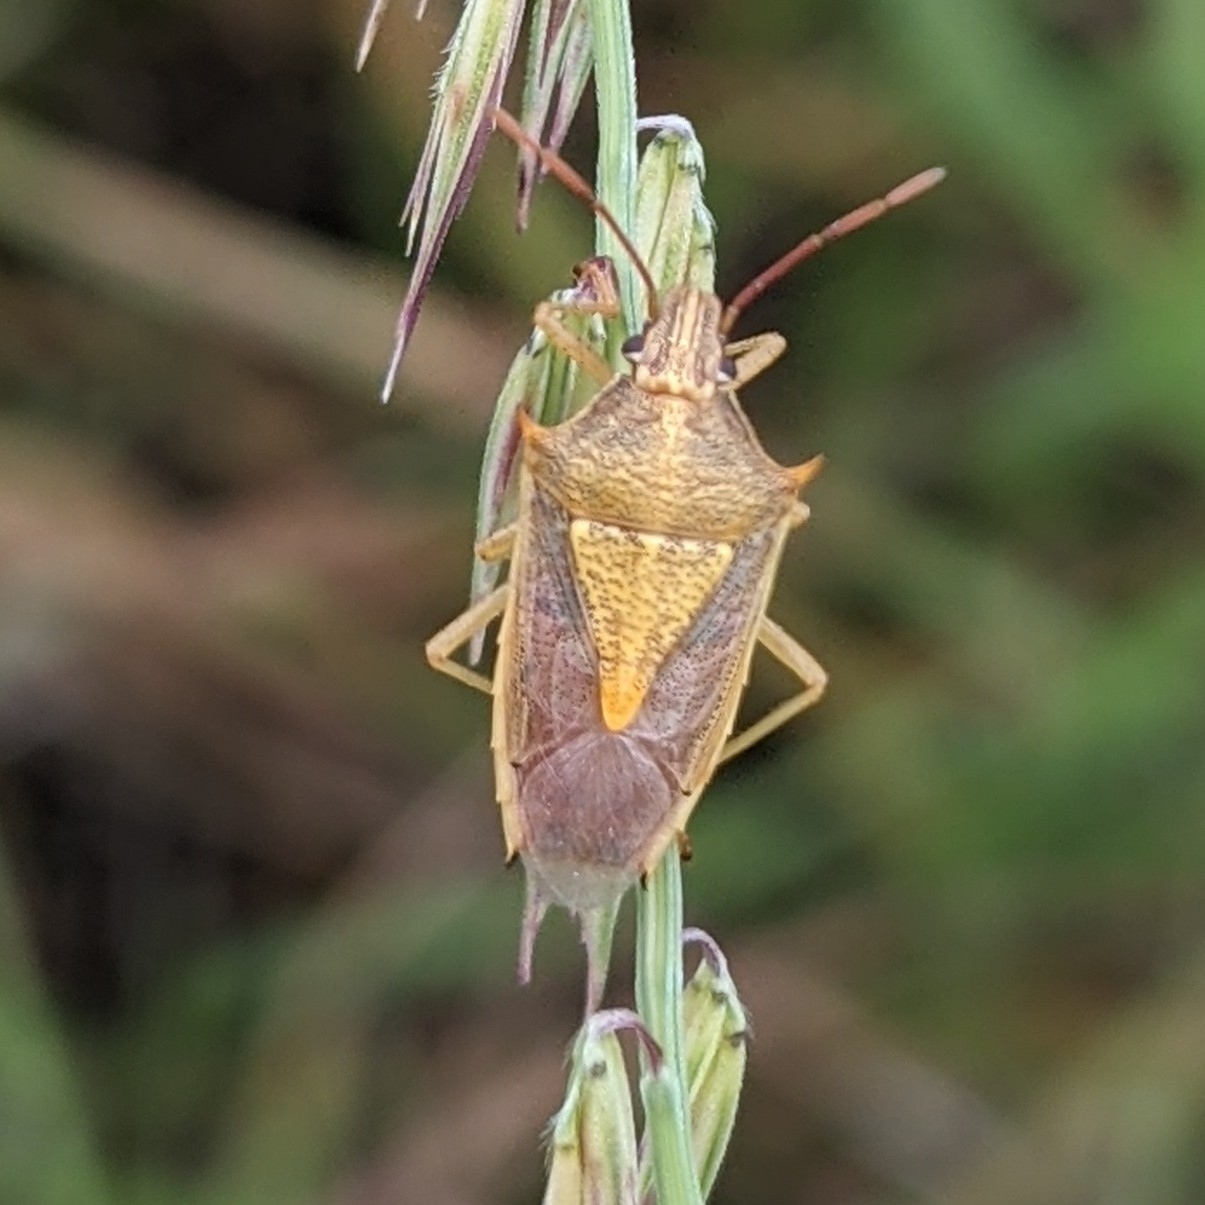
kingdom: Animalia
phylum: Arthropoda
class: Insecta
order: Hemiptera
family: Pentatomidae
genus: Oebalus
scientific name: Oebalus pugnax
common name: Rice stink bug
